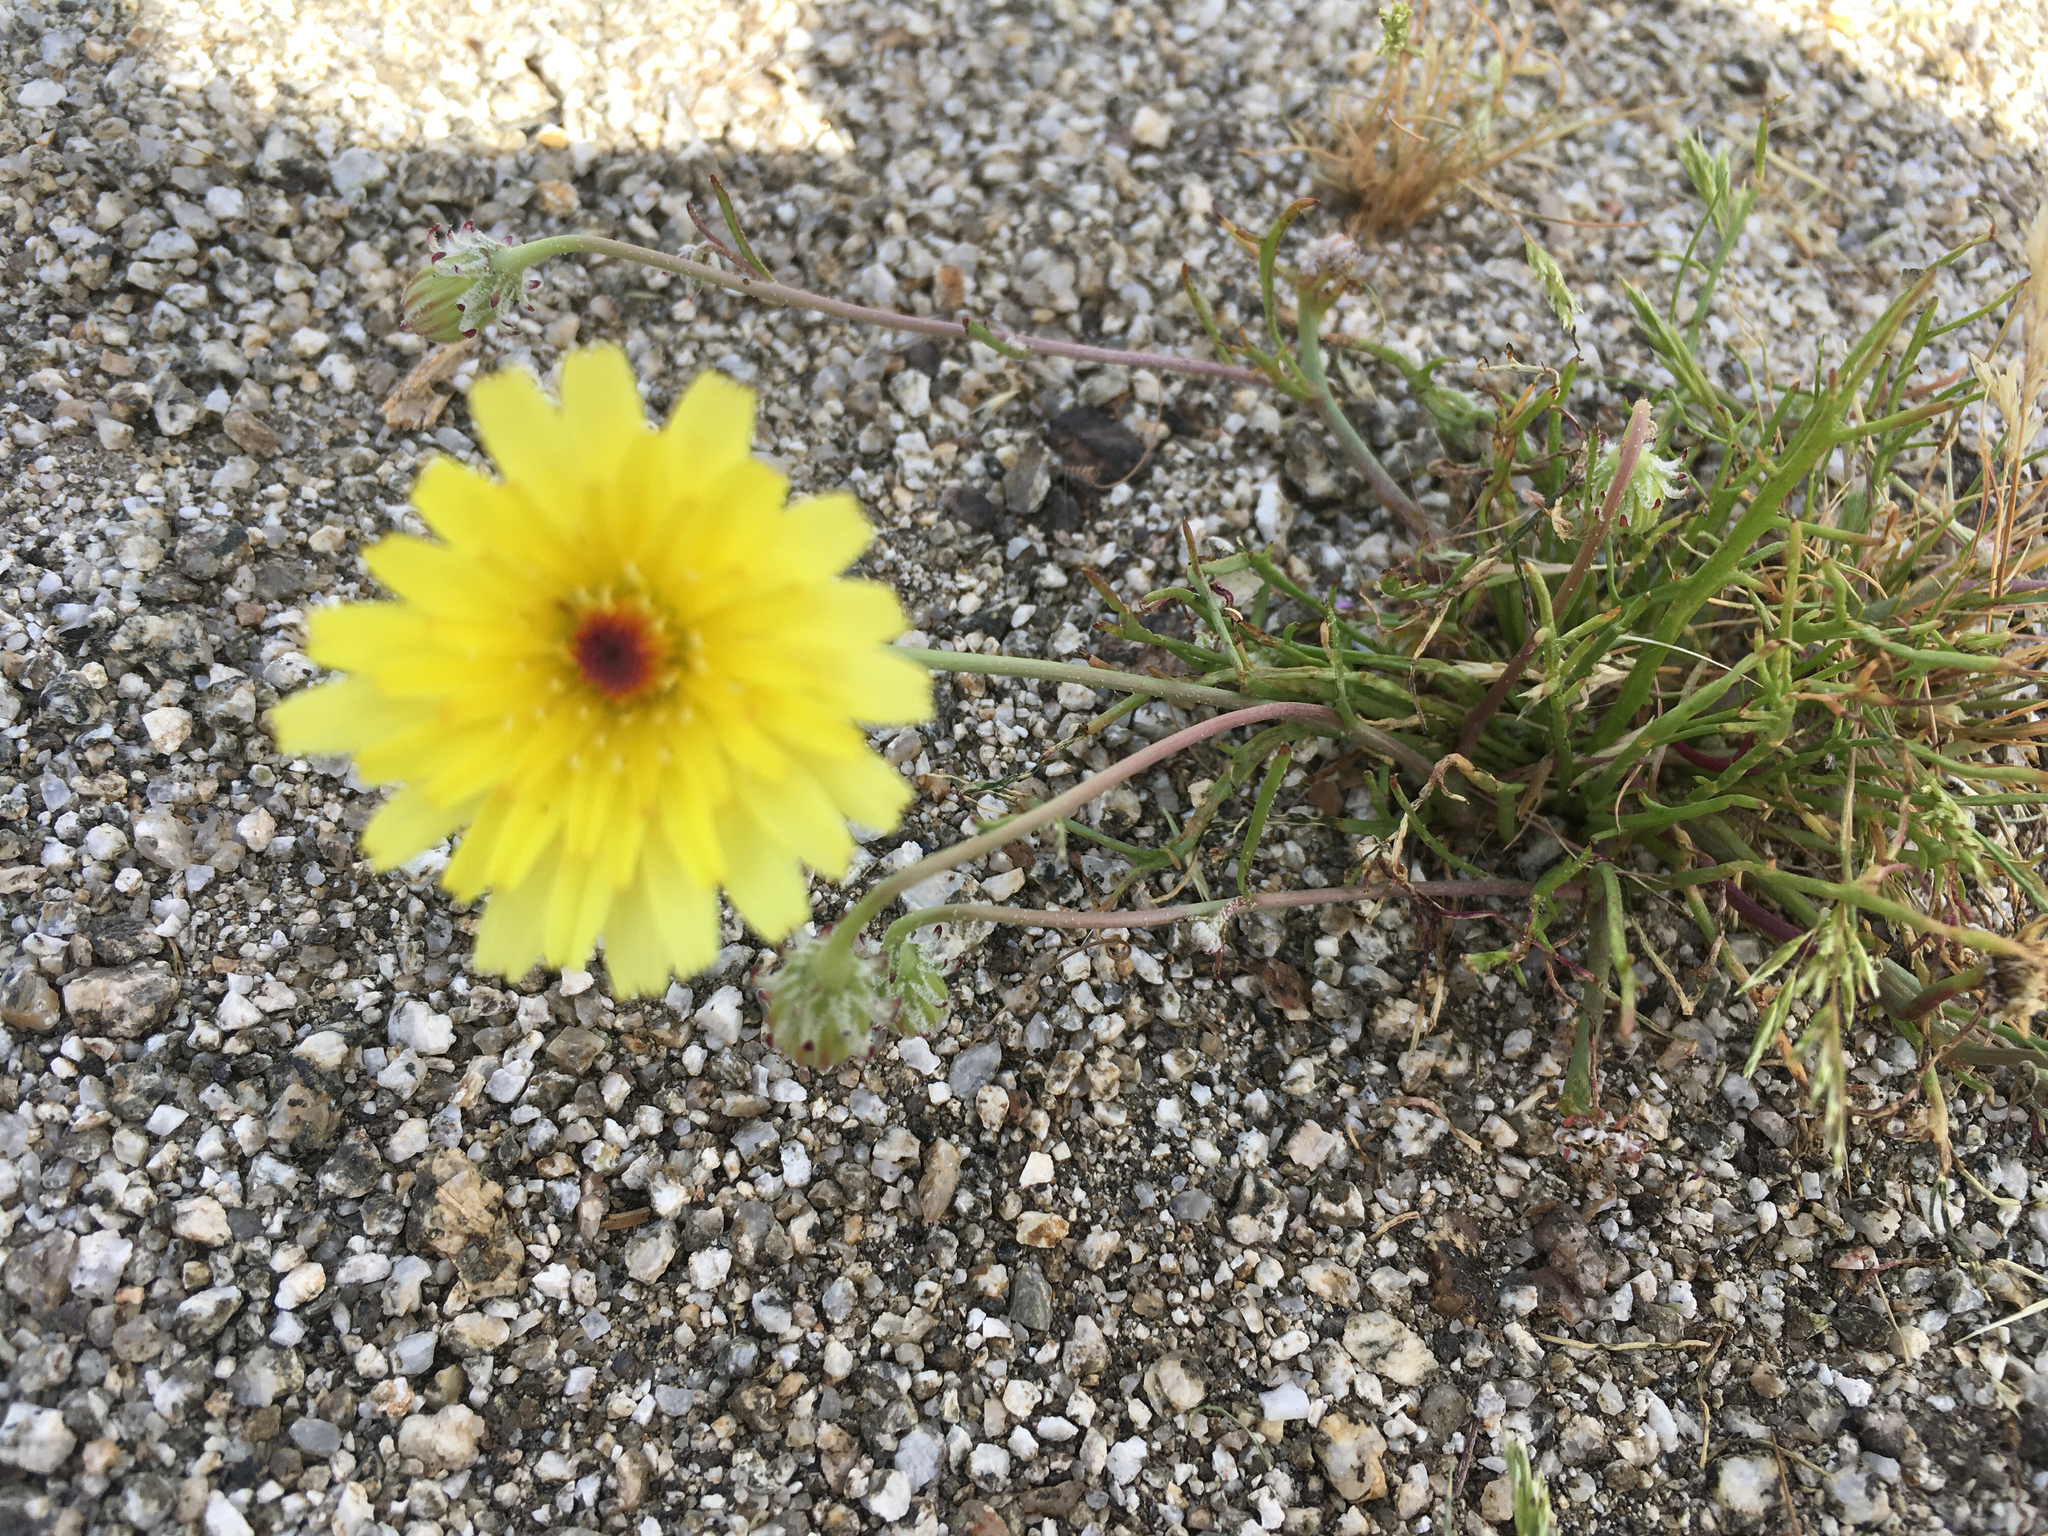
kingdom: Plantae
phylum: Tracheophyta
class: Magnoliopsida
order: Asterales
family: Asteraceae
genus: Malacothrix
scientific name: Malacothrix glabrata
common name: Smooth desert-dandelion
